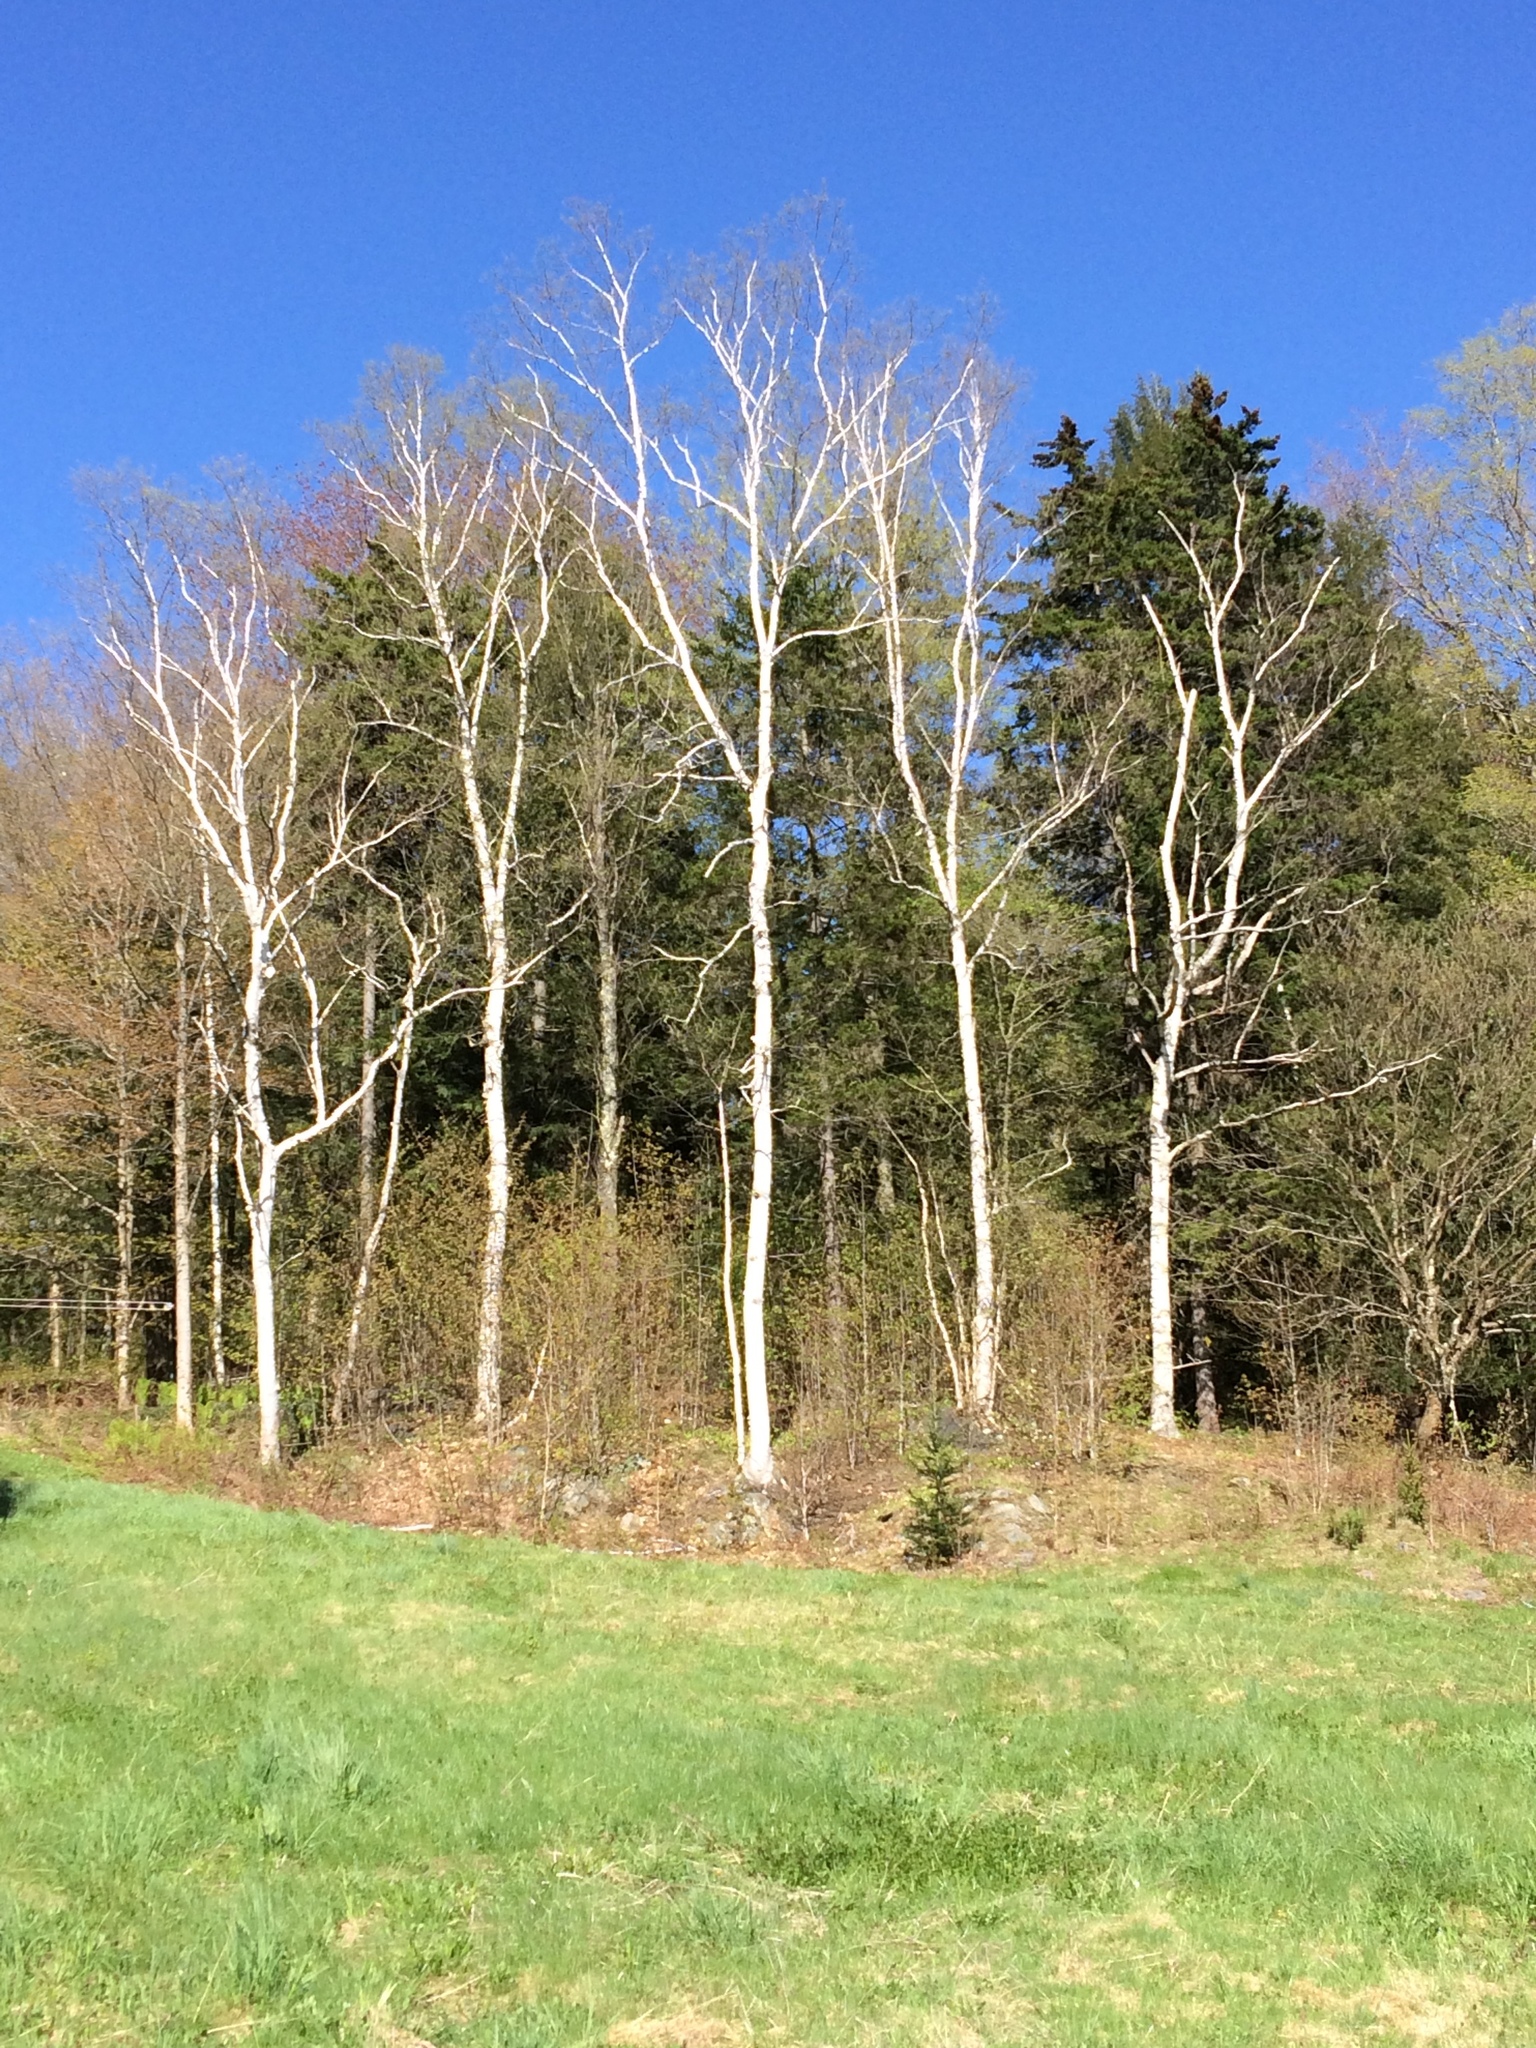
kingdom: Plantae
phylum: Tracheophyta
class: Magnoliopsida
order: Fagales
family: Betulaceae
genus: Betula
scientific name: Betula papyrifera
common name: Paper birch
